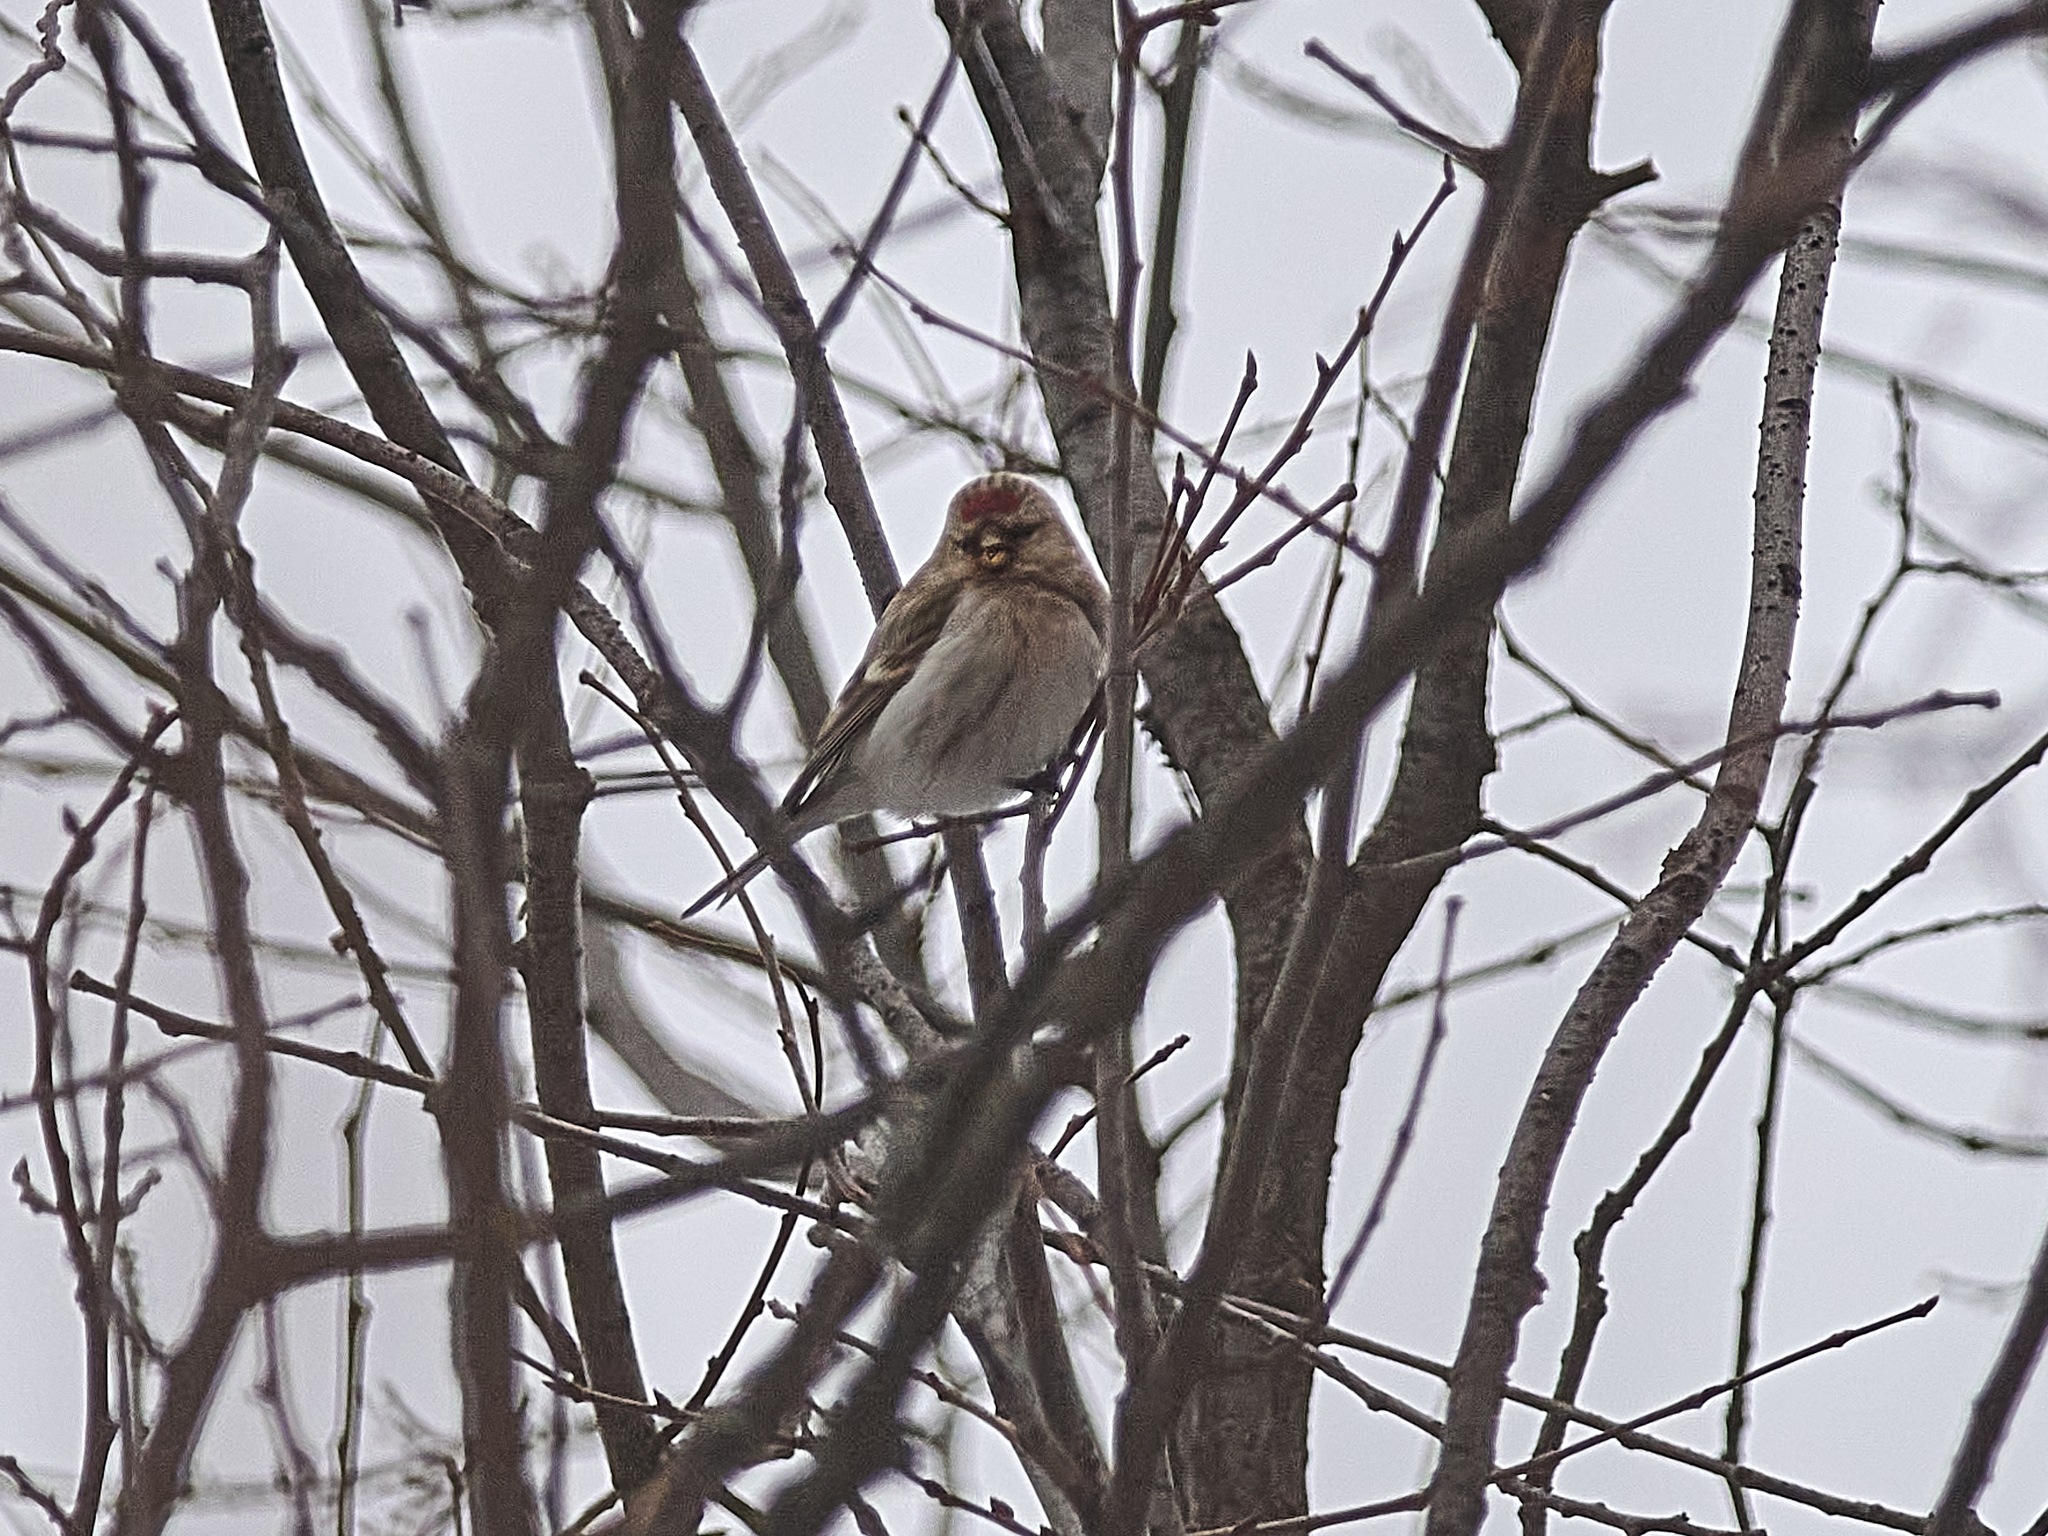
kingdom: Animalia
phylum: Chordata
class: Aves
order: Passeriformes
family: Fringillidae
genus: Acanthis
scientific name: Acanthis hornemanni
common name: Arctic redpoll
